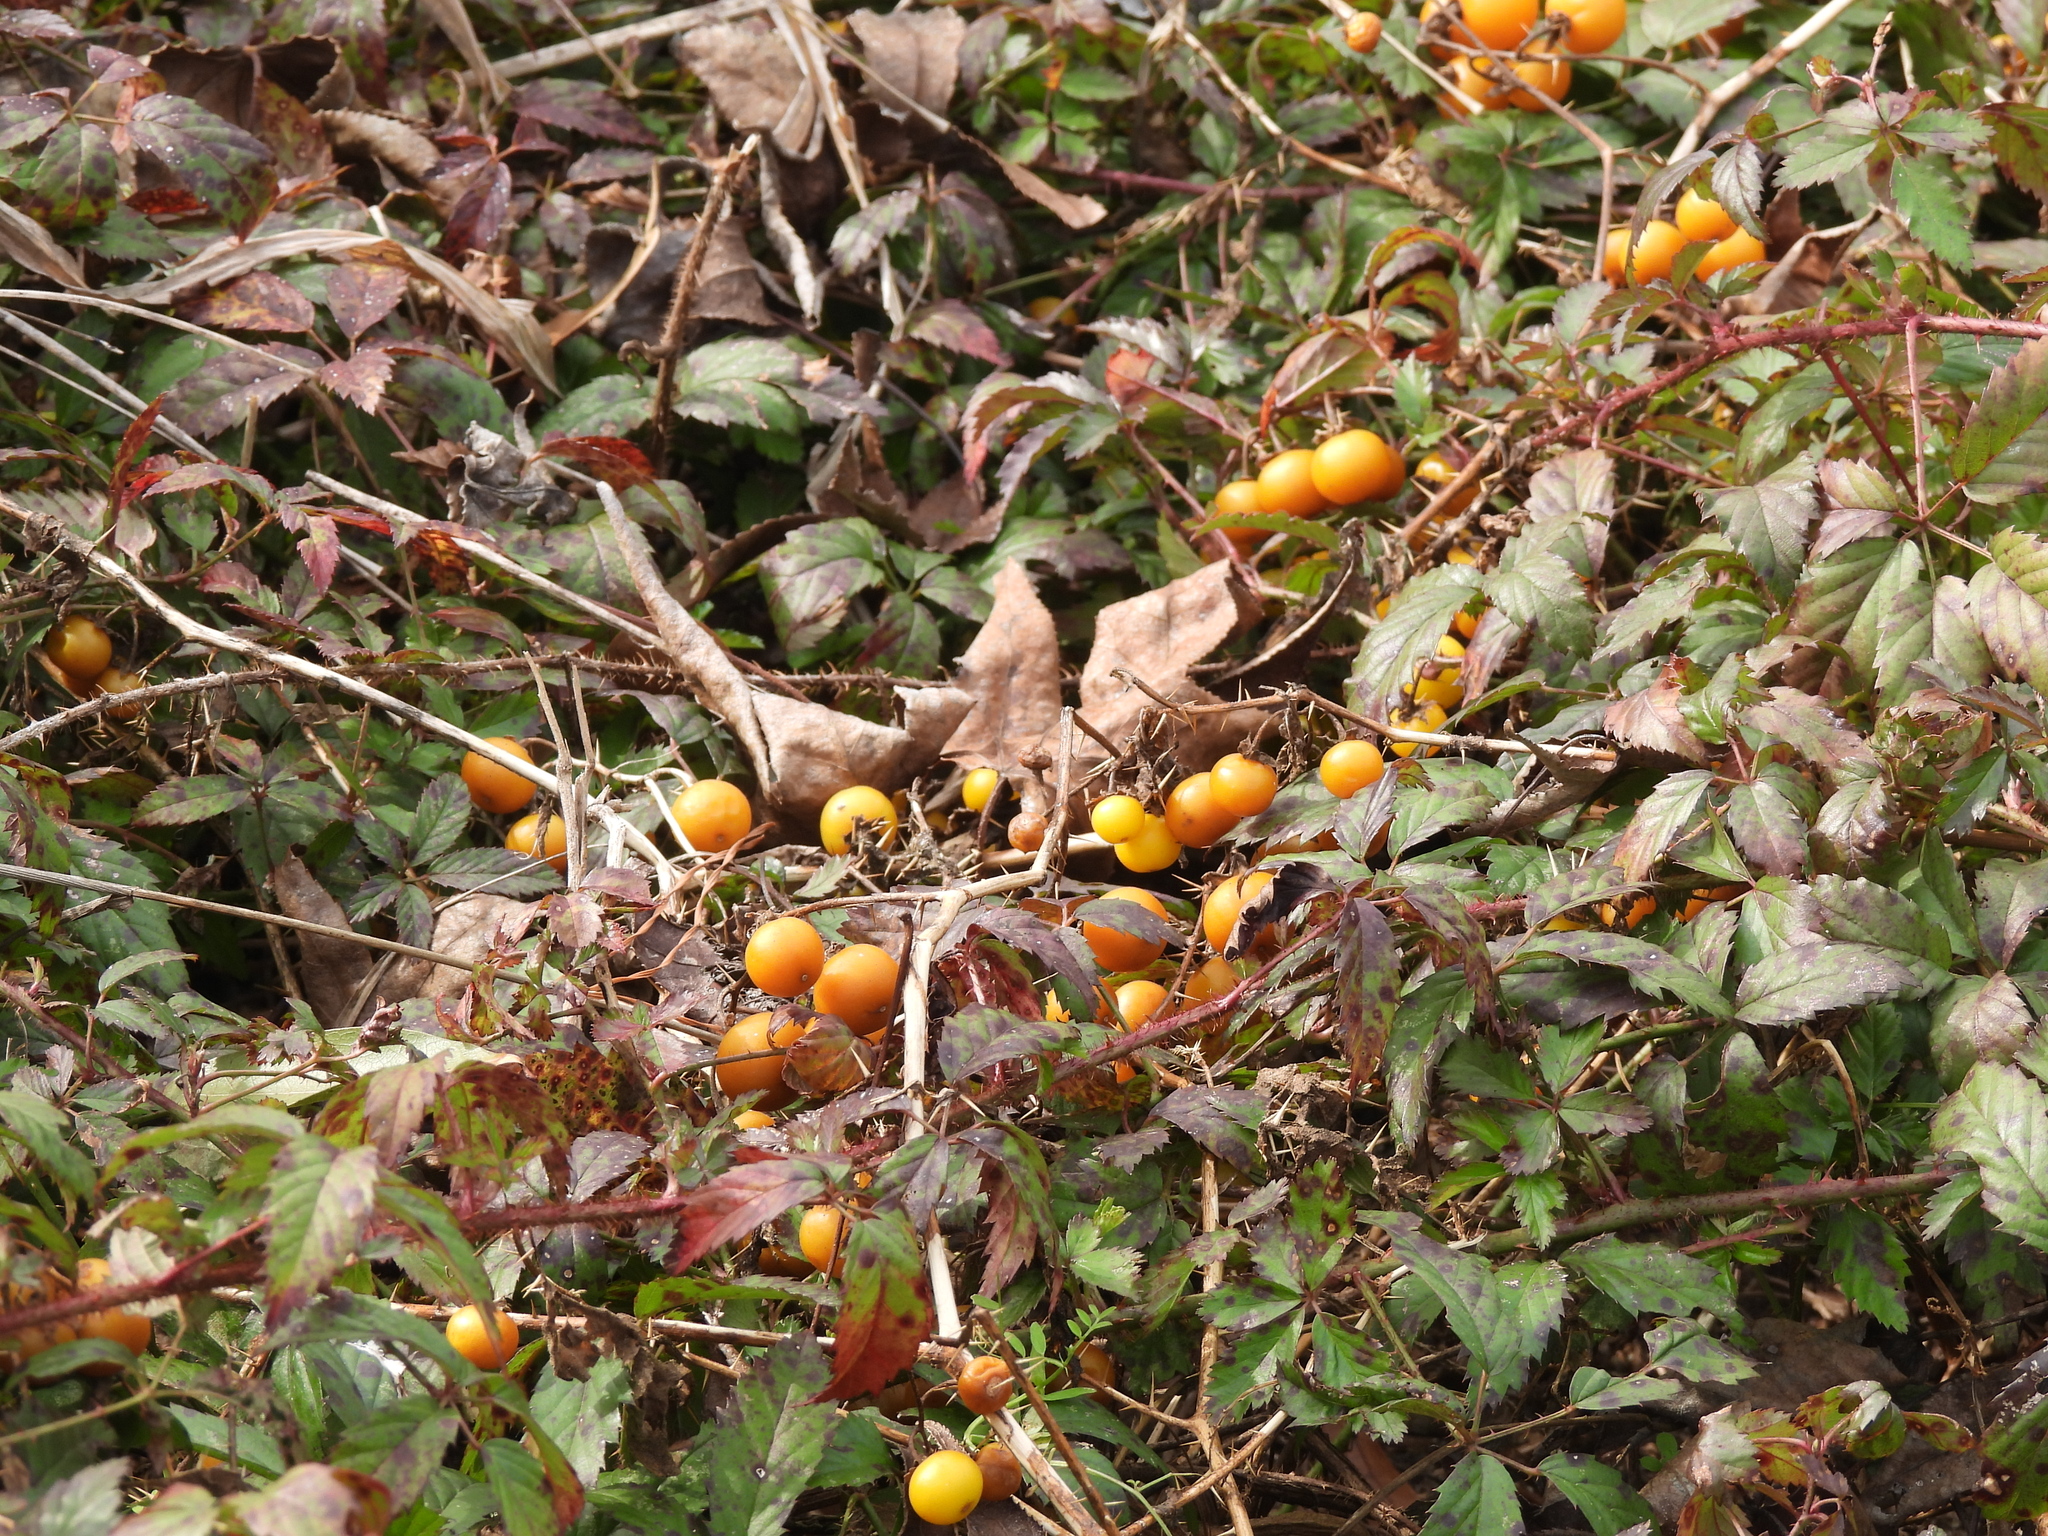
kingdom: Plantae
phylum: Tracheophyta
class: Magnoliopsida
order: Solanales
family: Solanaceae
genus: Solanum
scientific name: Solanum carolinense
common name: Horse-nettle
